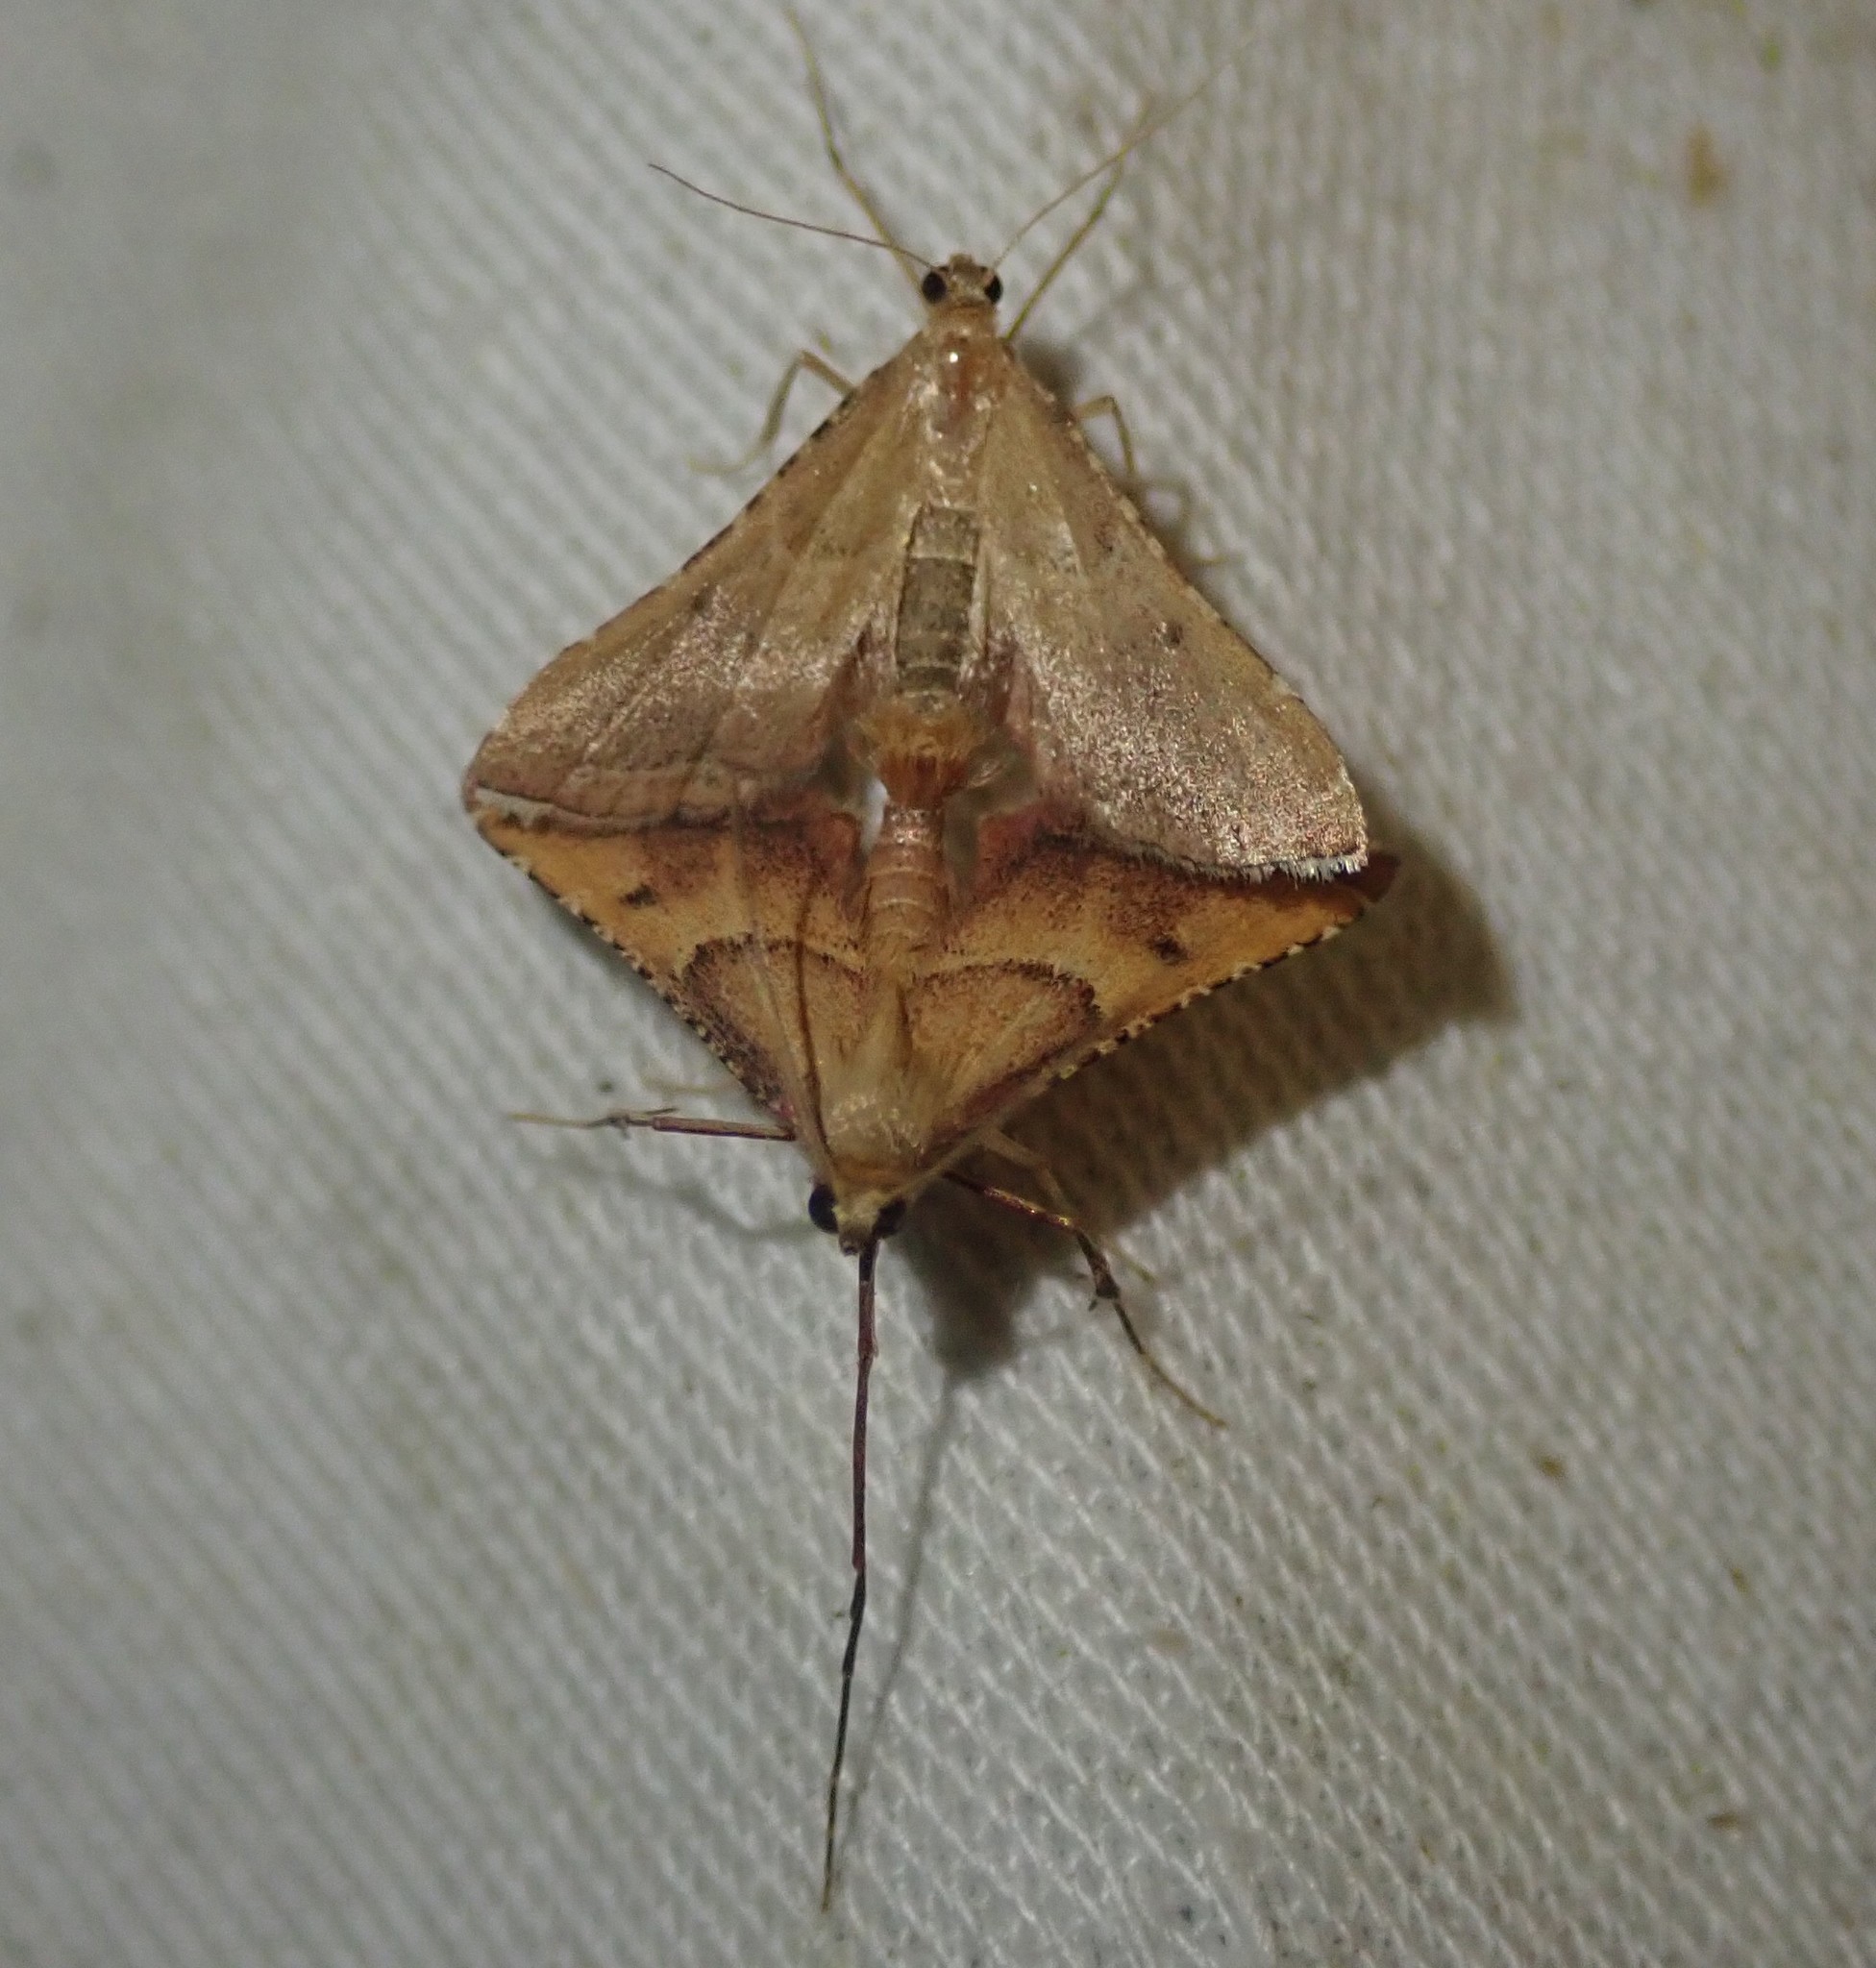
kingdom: Animalia
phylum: Arthropoda
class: Insecta
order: Lepidoptera
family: Pyralidae
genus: Endotricha
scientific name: Endotricha flammealis
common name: Rosy tabby
